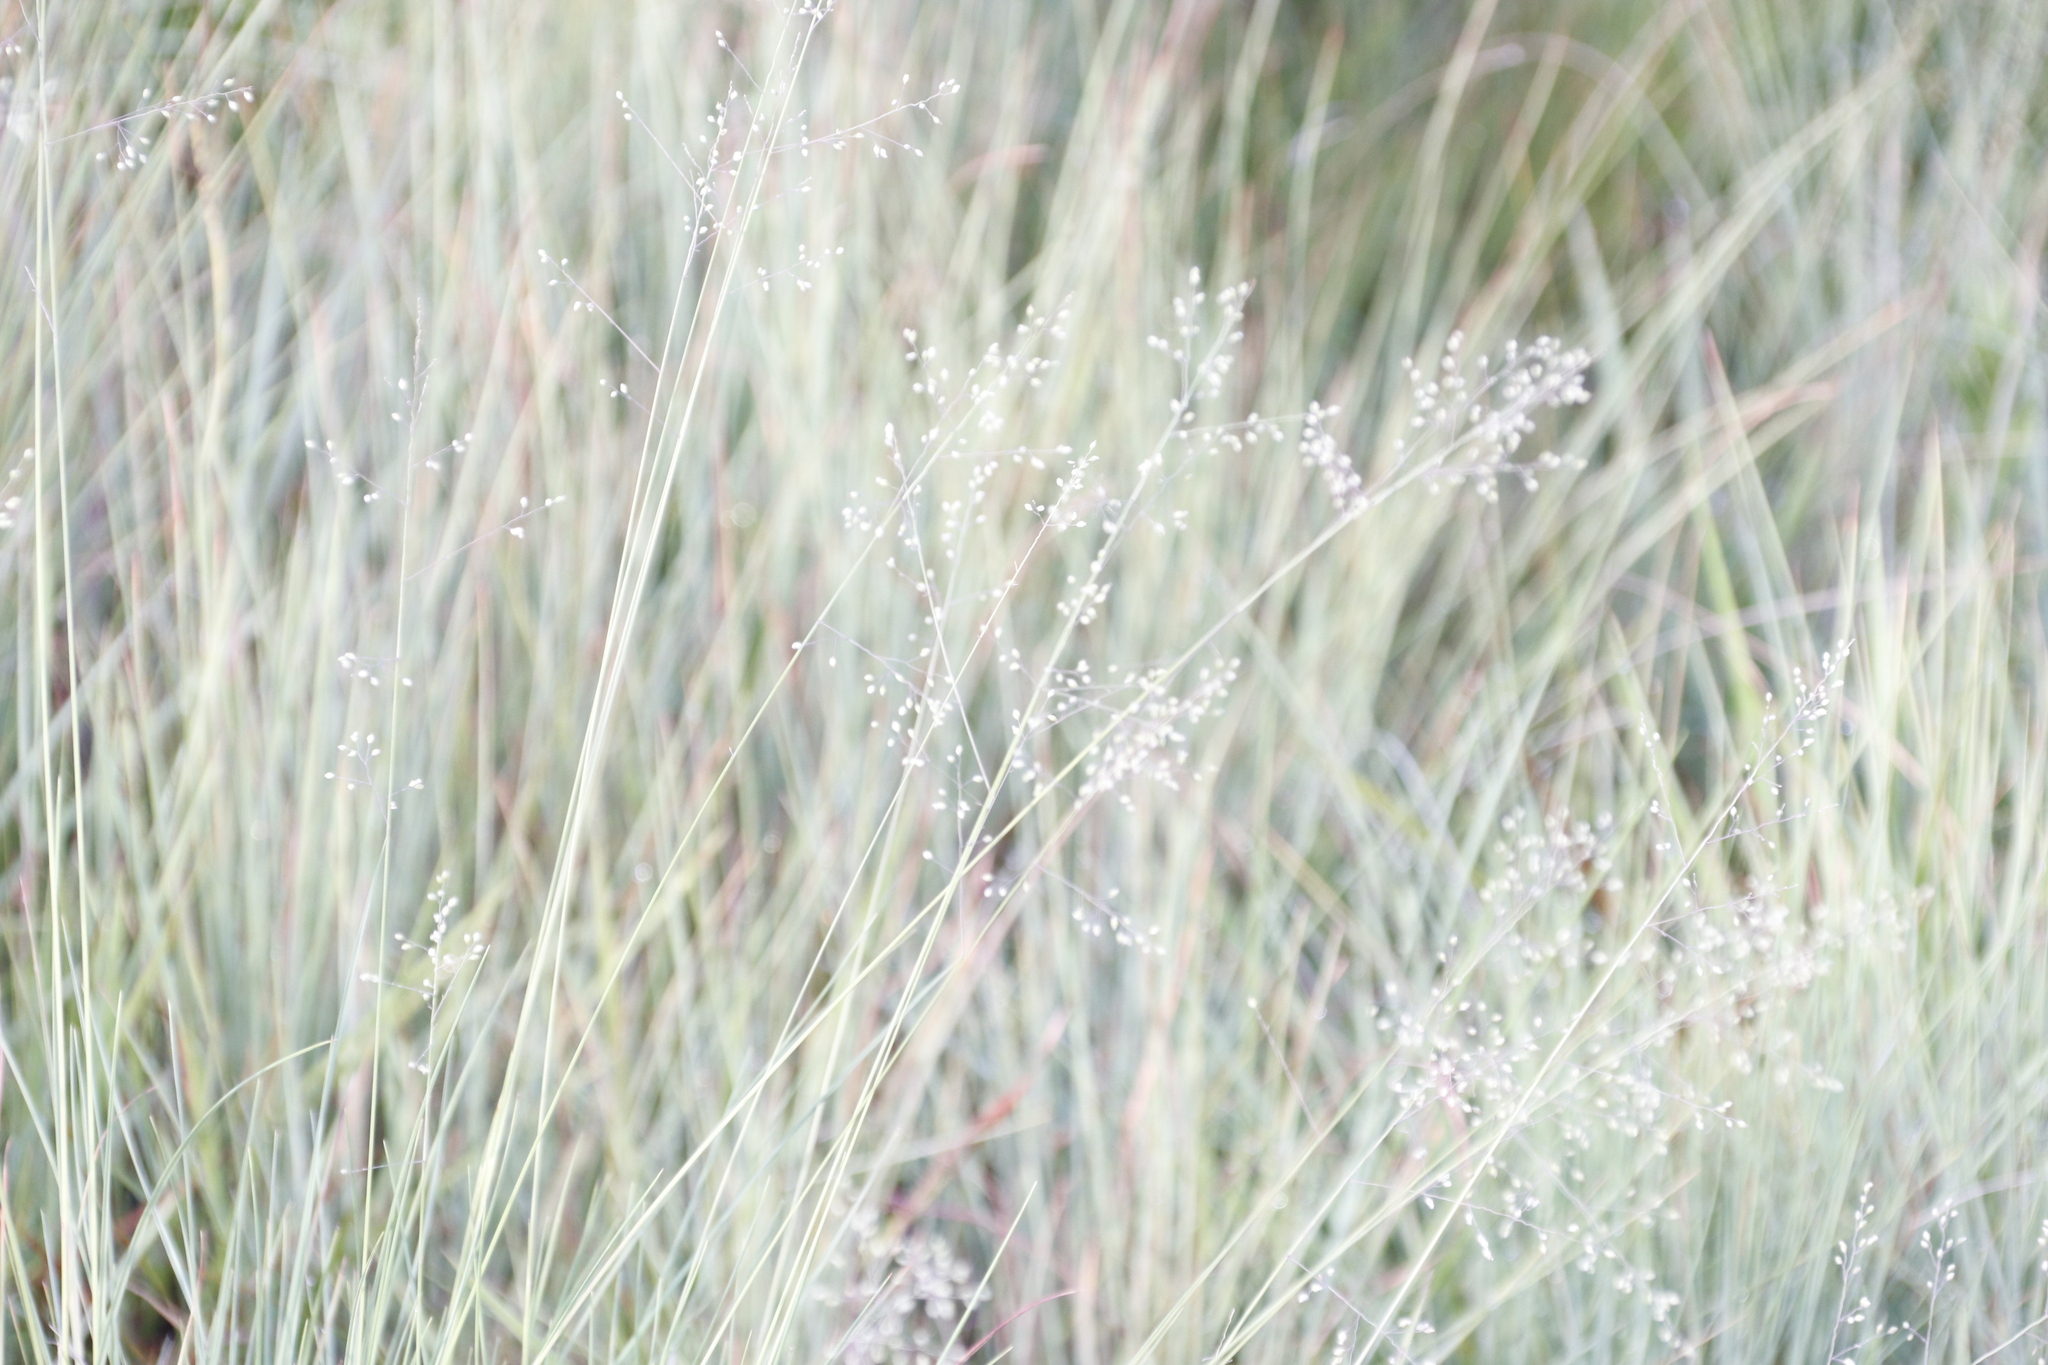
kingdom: Plantae
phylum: Tracheophyta
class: Liliopsida
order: Poales
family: Poaceae
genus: Trichanthecium
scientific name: Trichanthecium natalense
